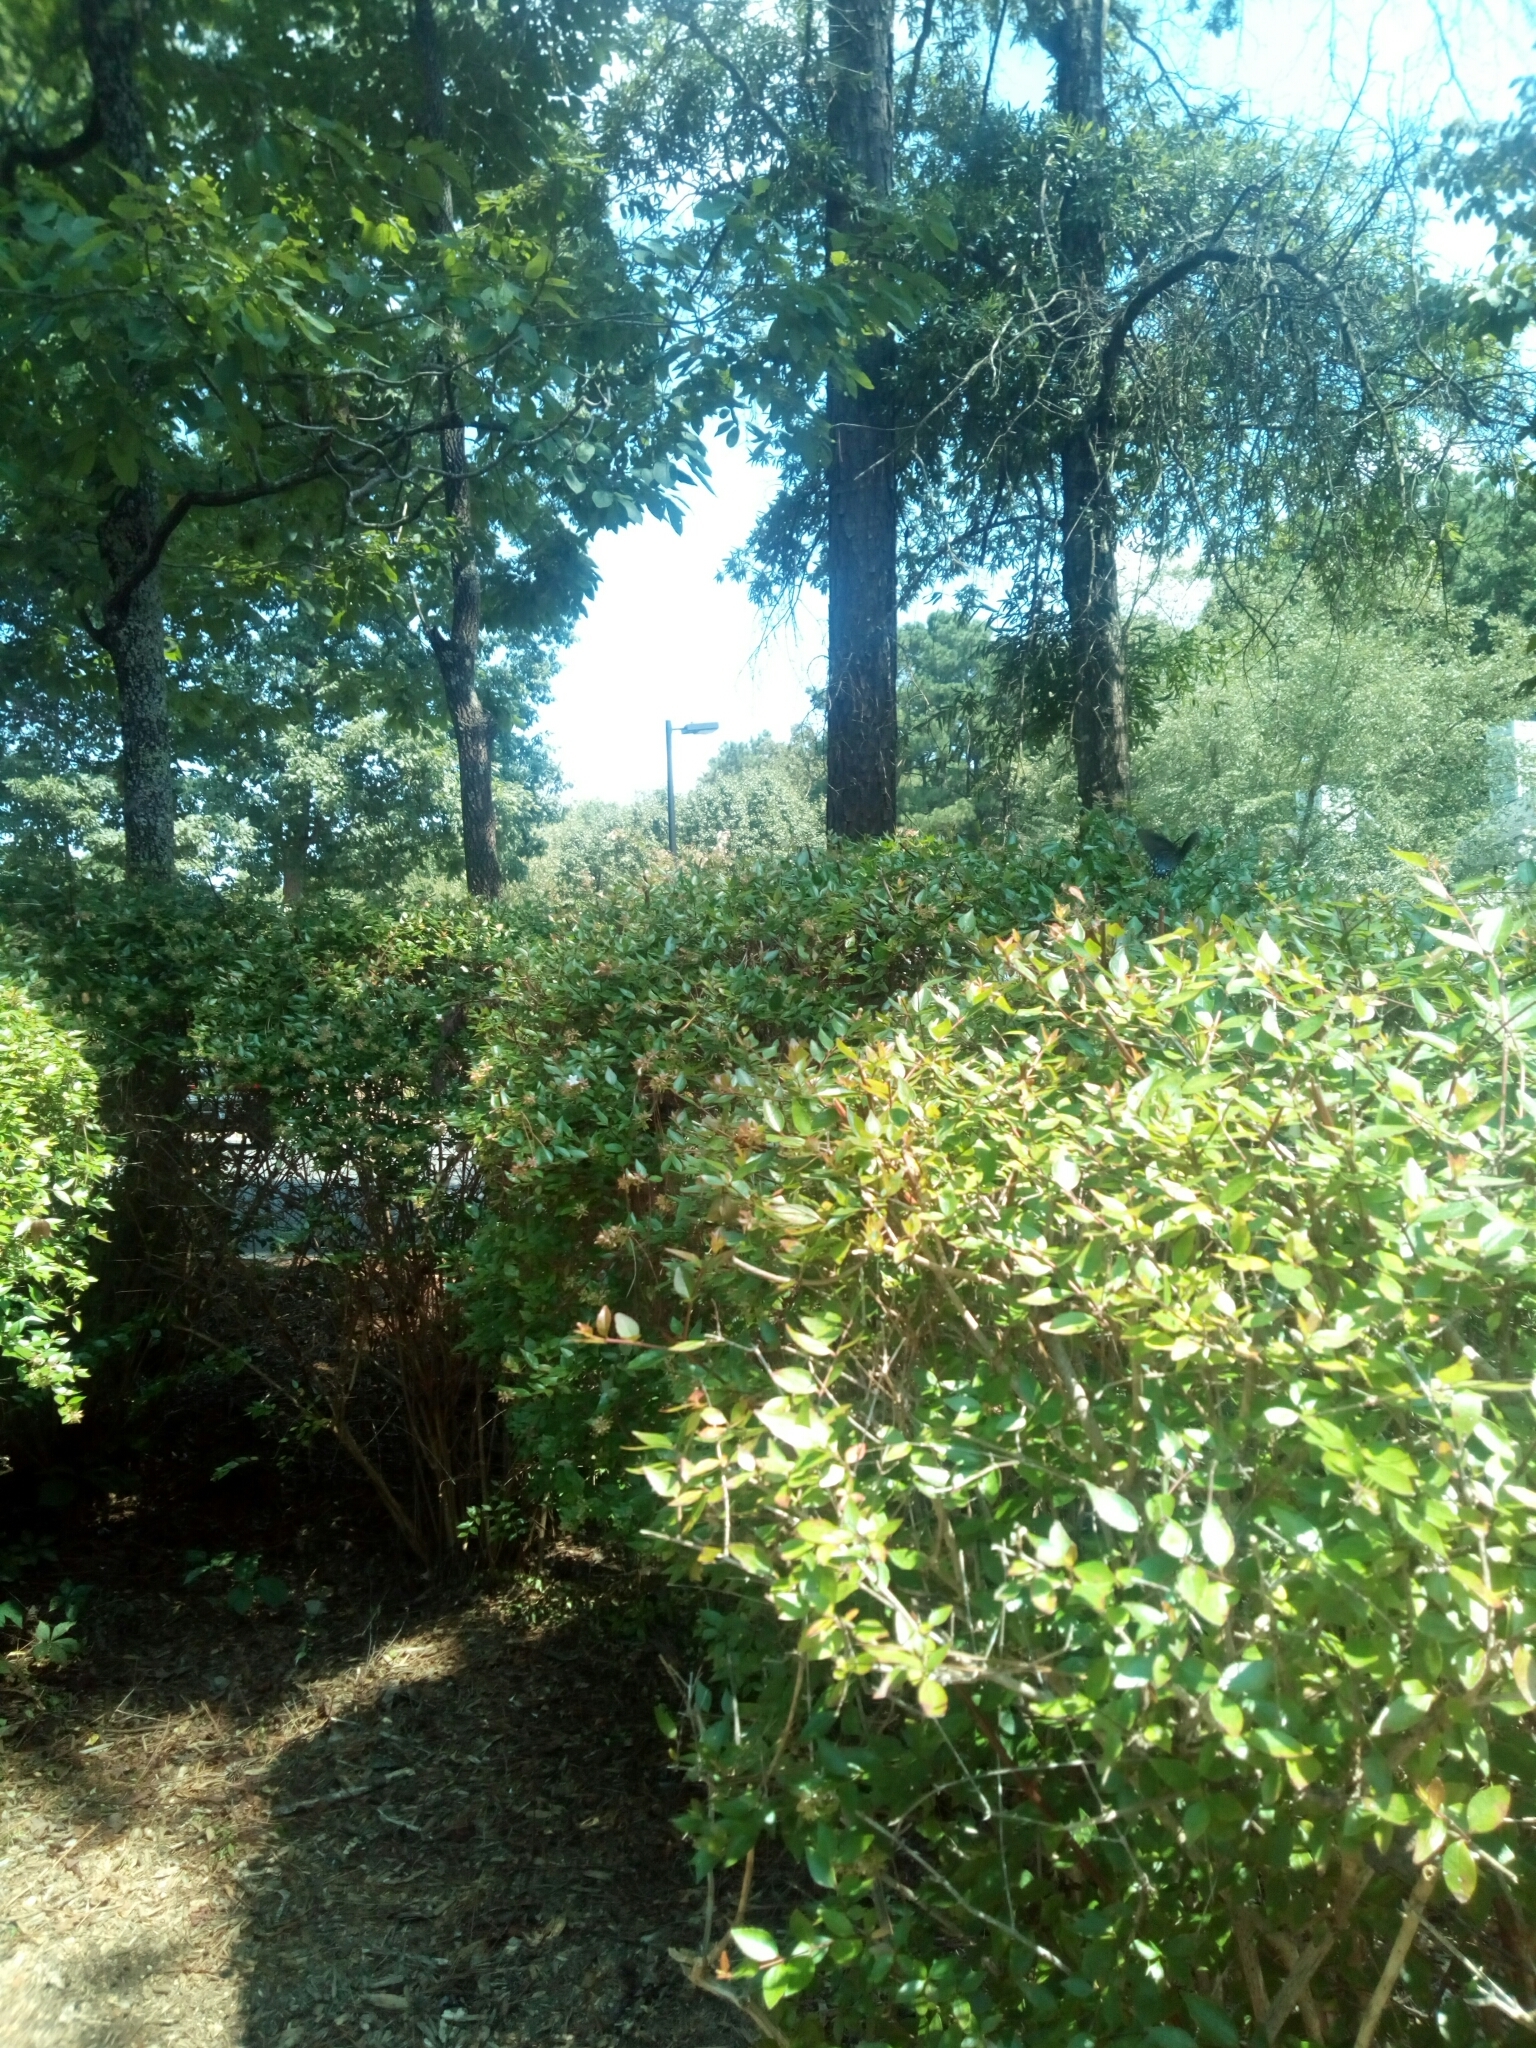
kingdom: Animalia
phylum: Arthropoda
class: Insecta
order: Lepidoptera
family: Papilionidae
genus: Papilio
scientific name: Papilio glaucus
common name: Tiger swallowtail
